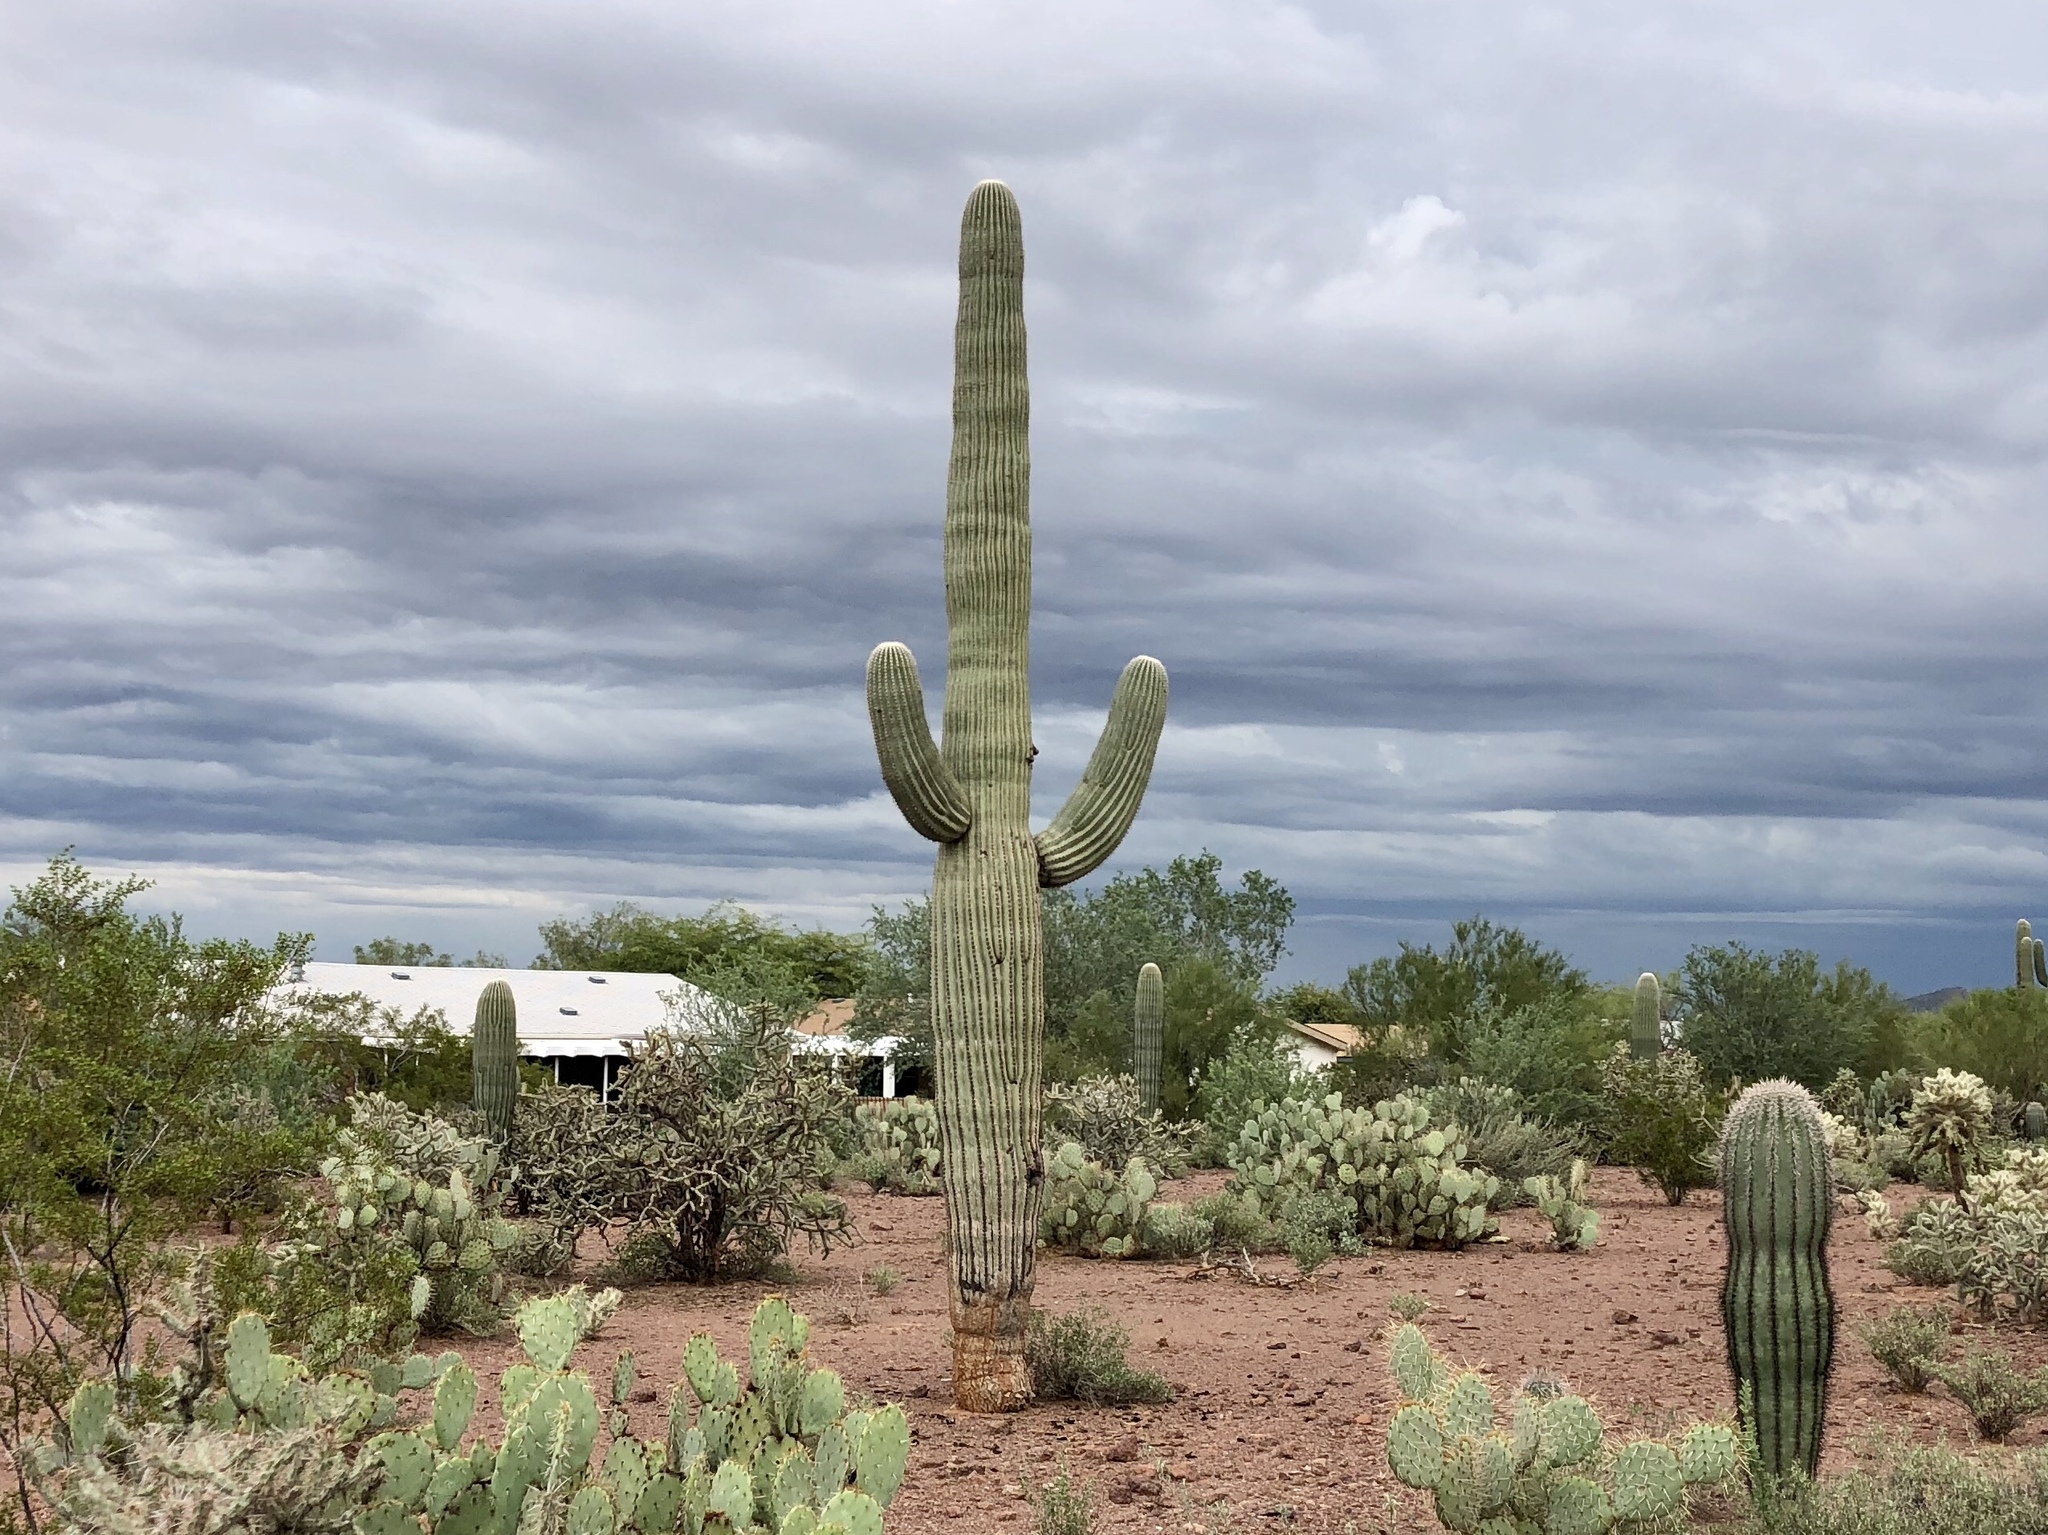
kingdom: Plantae
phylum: Tracheophyta
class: Magnoliopsida
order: Caryophyllales
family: Cactaceae
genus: Carnegiea
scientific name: Carnegiea gigantea
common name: Saguaro
